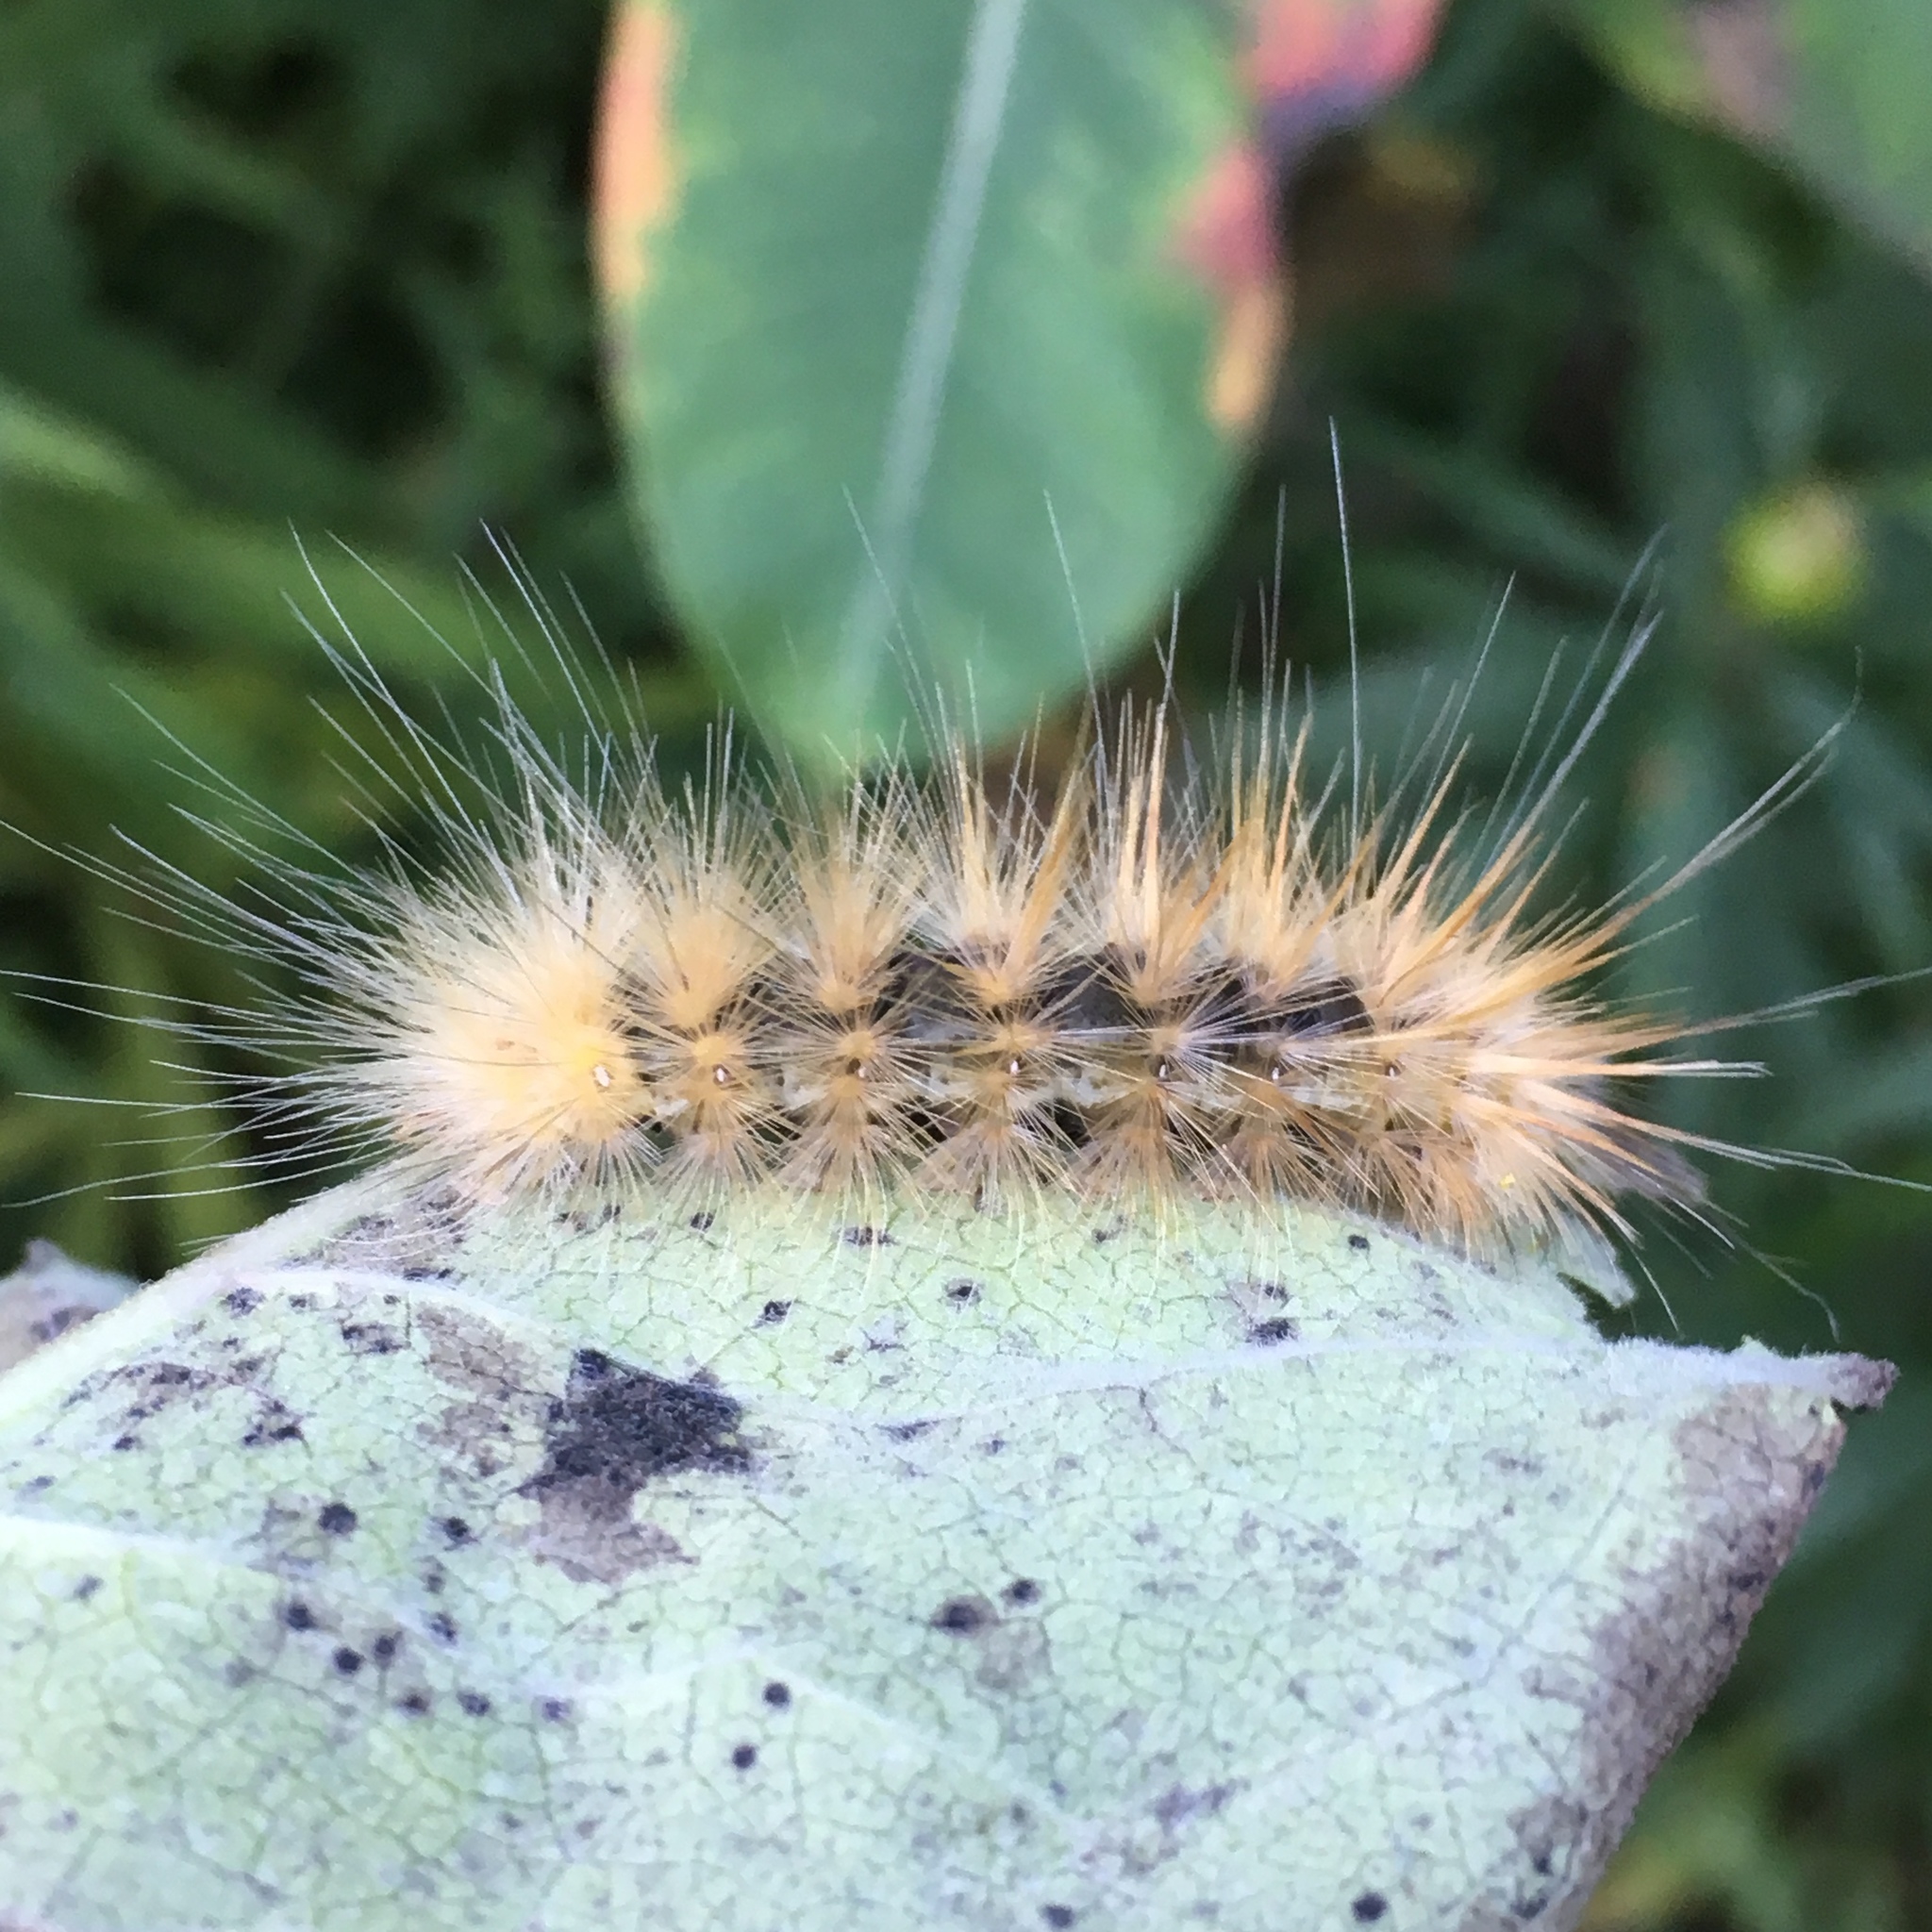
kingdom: Animalia
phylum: Arthropoda
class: Insecta
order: Lepidoptera
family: Erebidae
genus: Spilosoma
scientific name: Spilosoma virginica
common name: Virginia tiger moth
